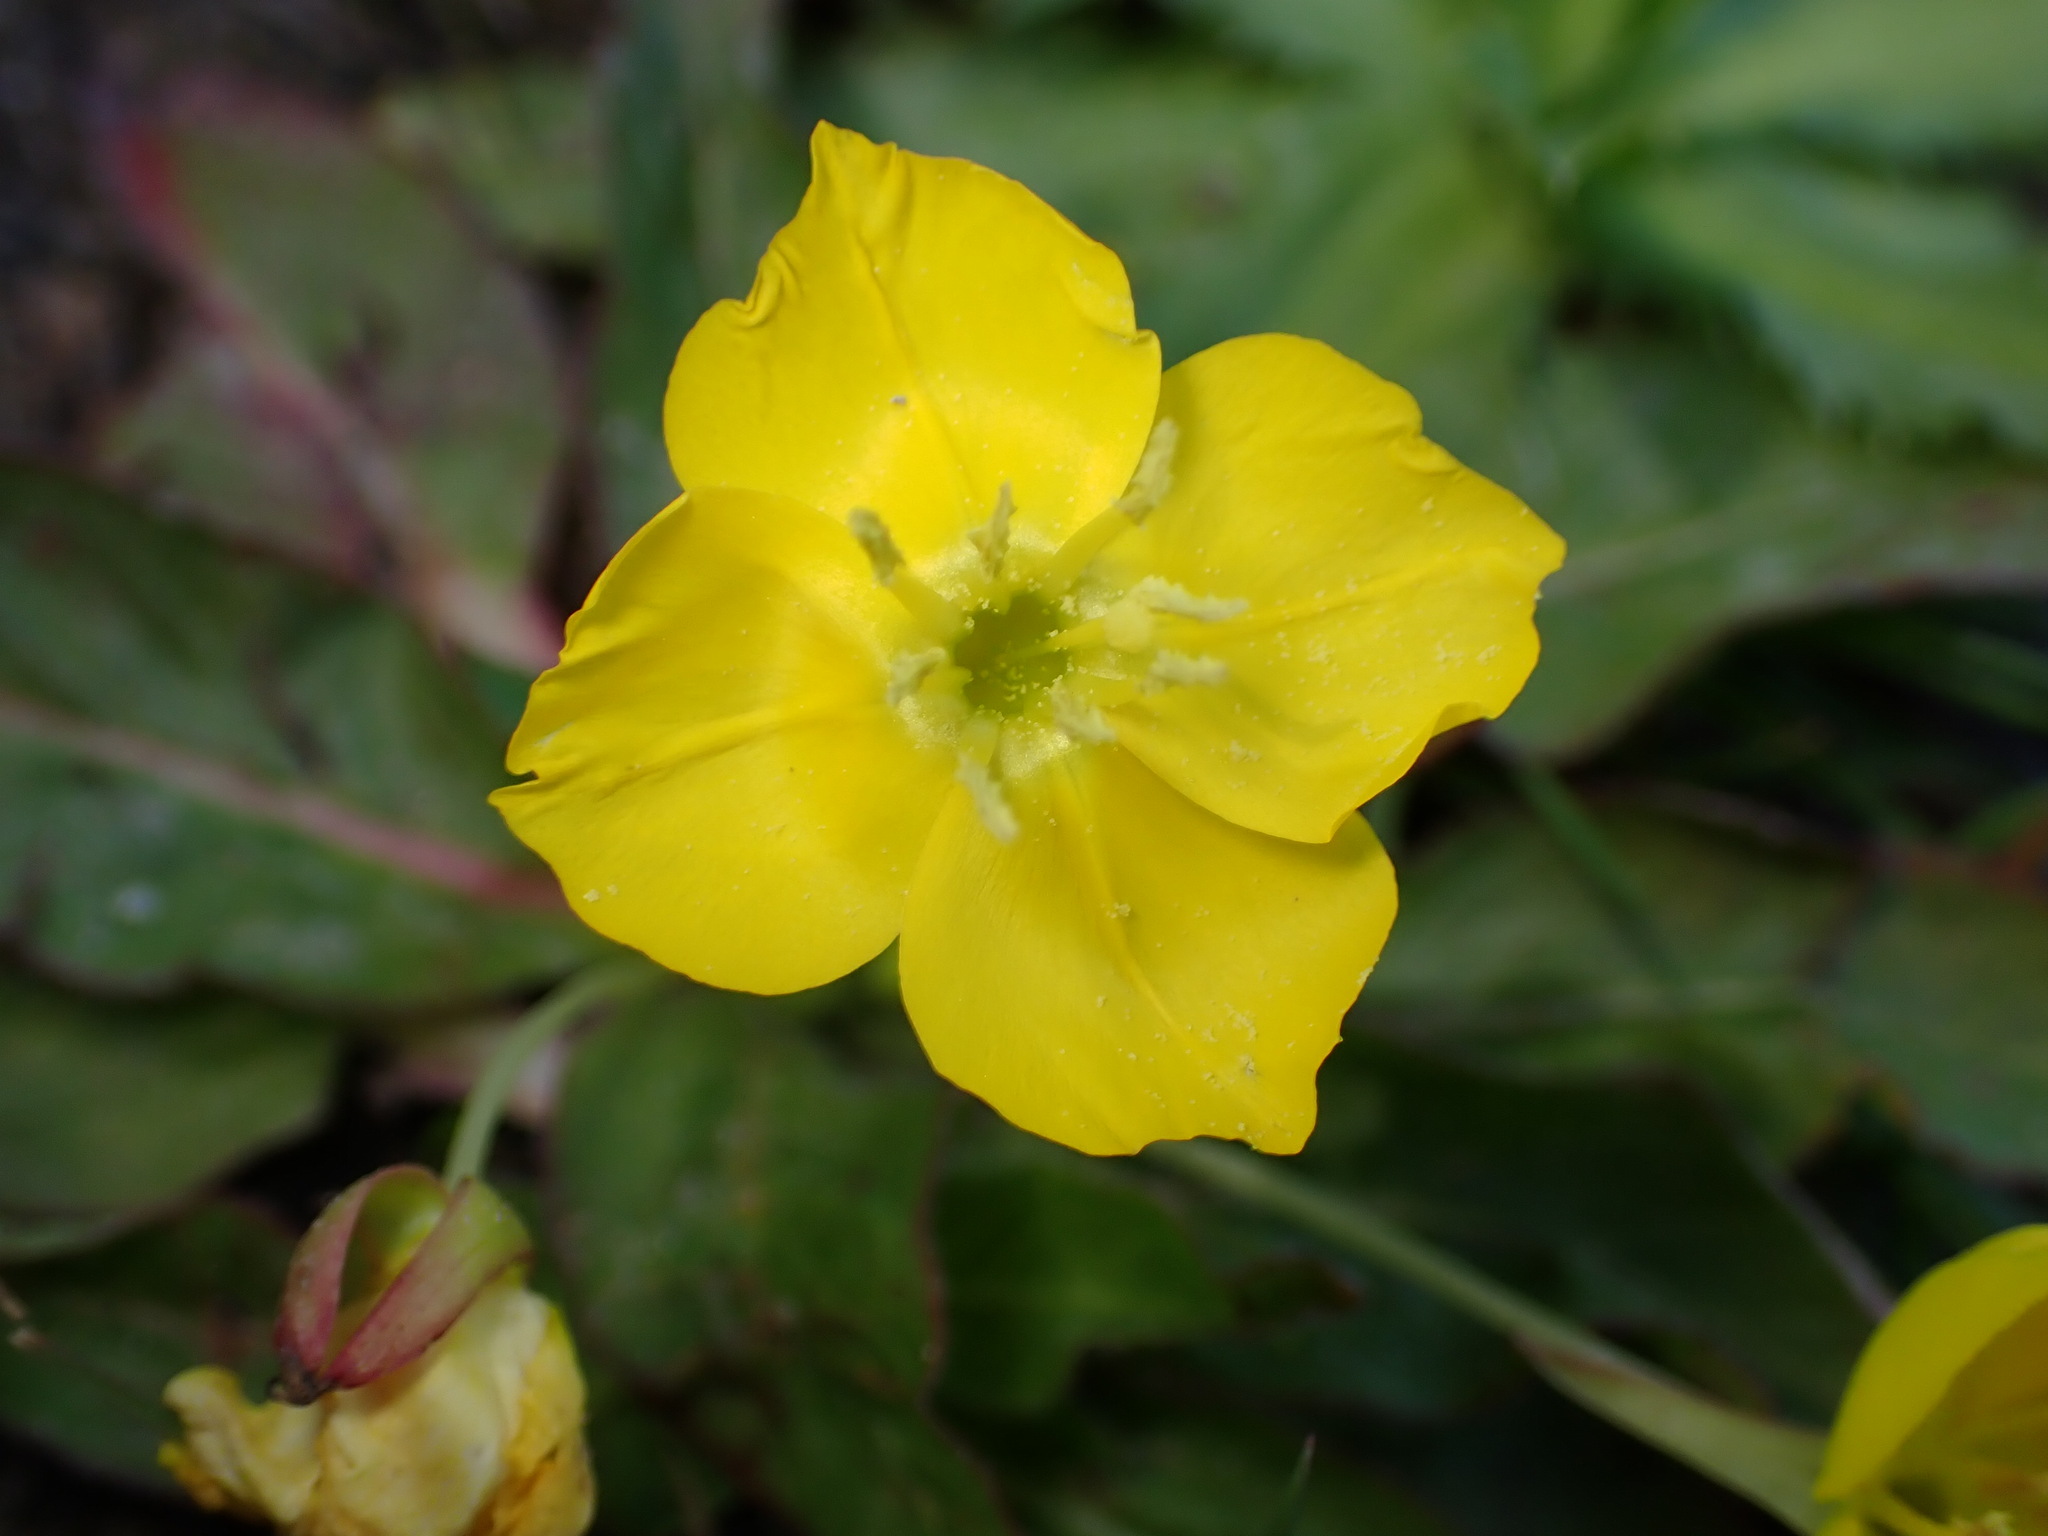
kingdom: Plantae
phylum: Tracheophyta
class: Magnoliopsida
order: Myrtales
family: Onagraceae
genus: Taraxia
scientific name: Taraxia ovata
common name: Goldeneggs
